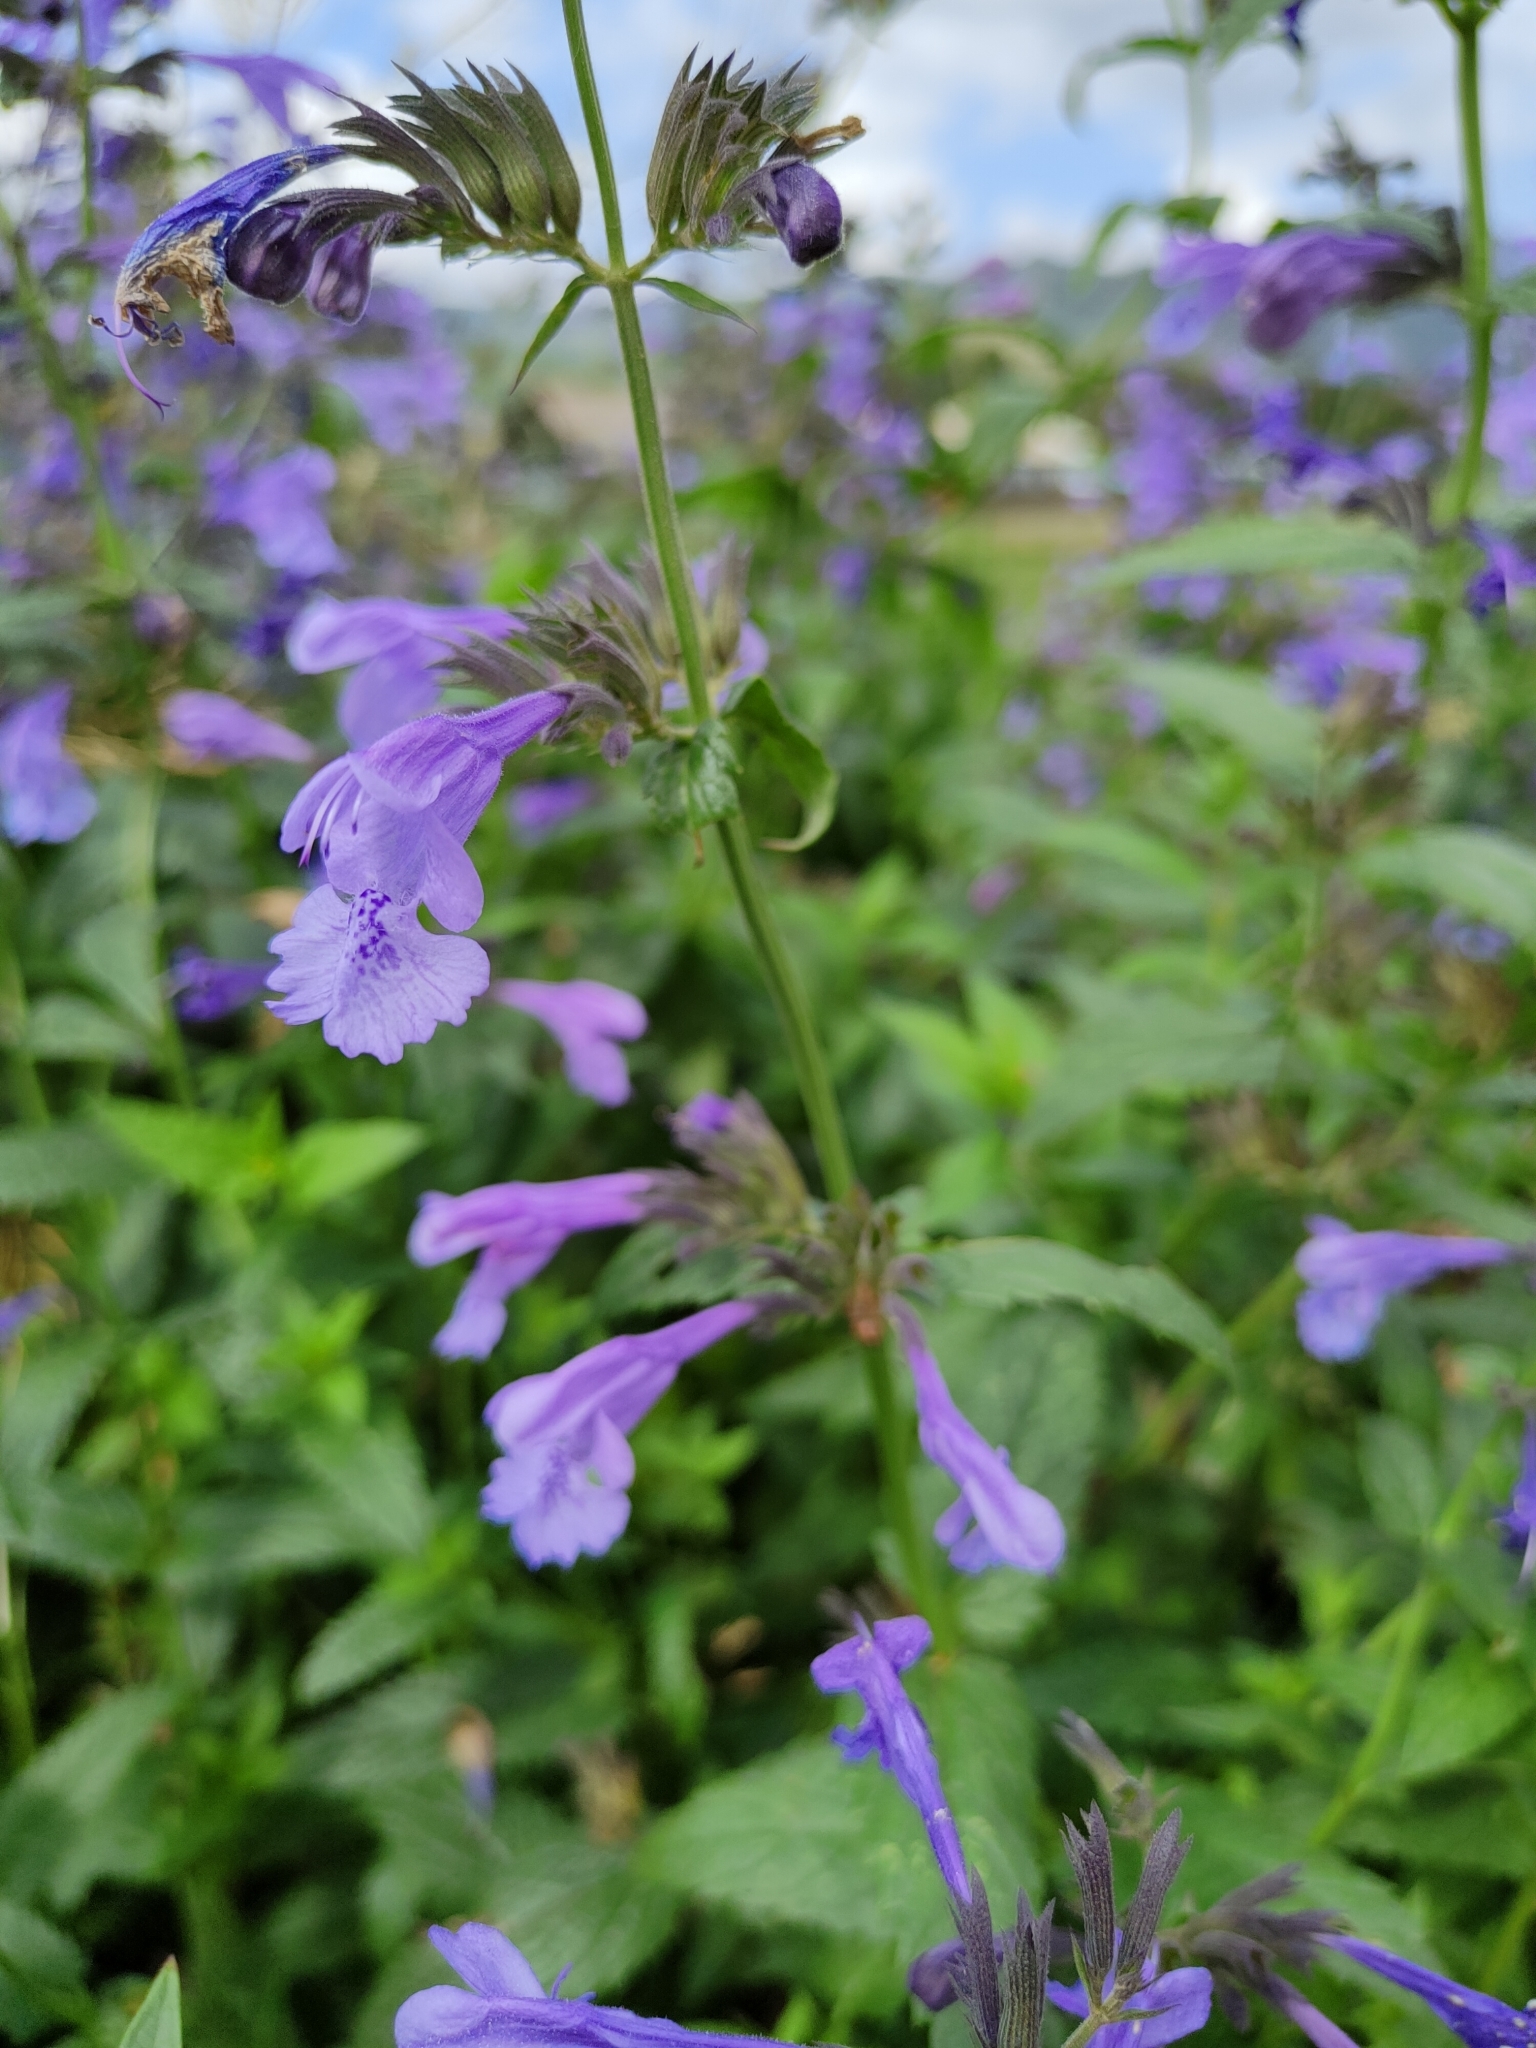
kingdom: Plantae
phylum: Tracheophyta
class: Magnoliopsida
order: Lamiales
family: Lamiaceae
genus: Nepeta
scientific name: Nepeta sibirica
